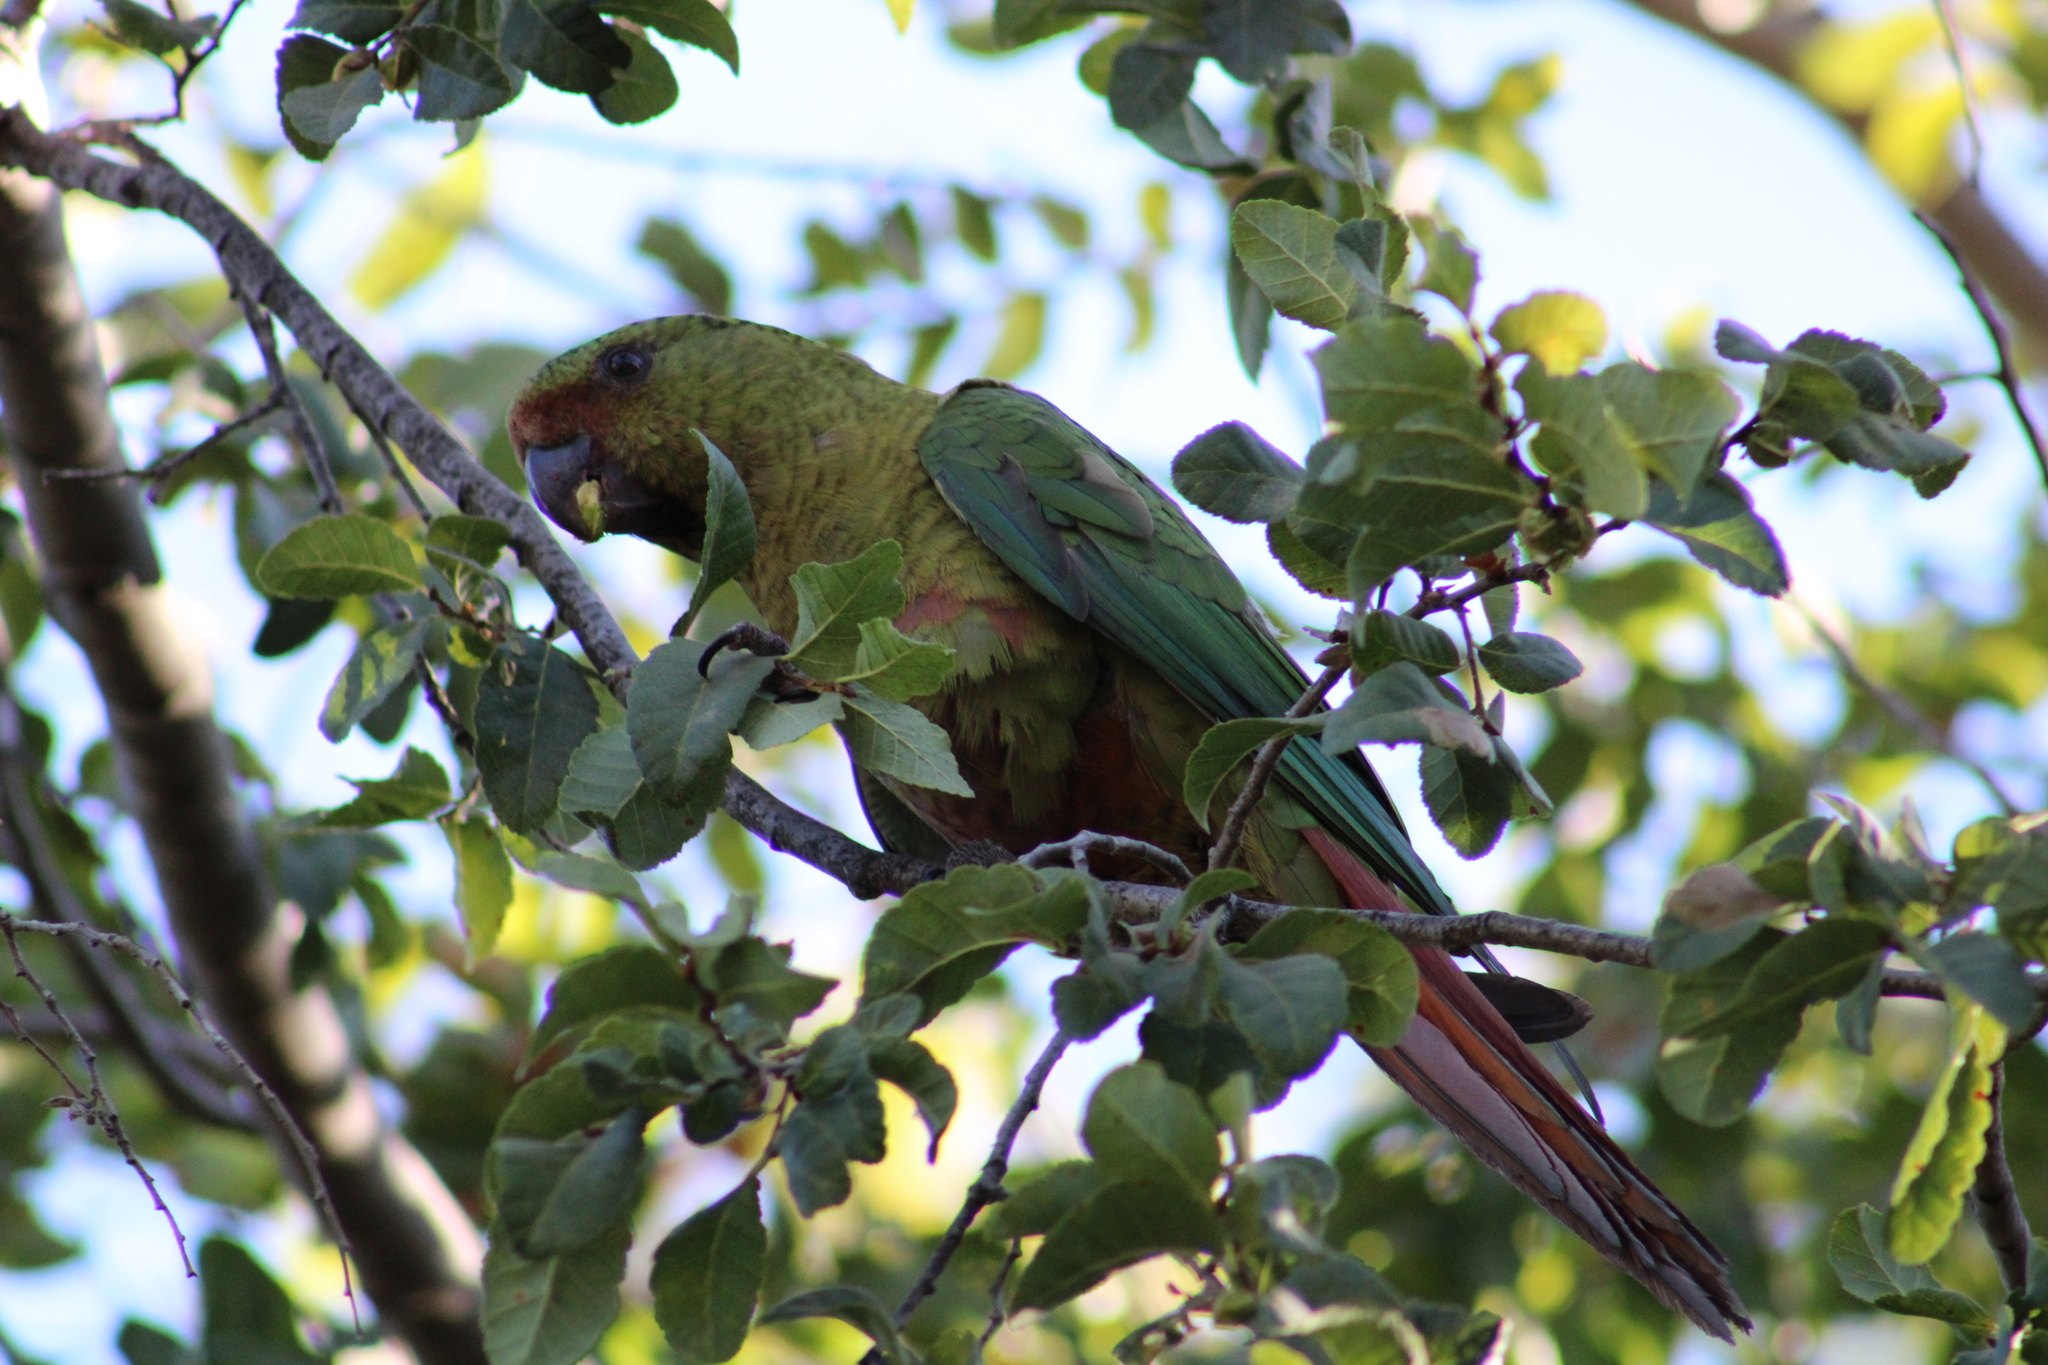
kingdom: Animalia
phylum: Chordata
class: Aves
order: Psittaciformes
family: Psittacidae
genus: Enicognathus
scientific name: Enicognathus ferrugineus
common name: Austral parakeet
